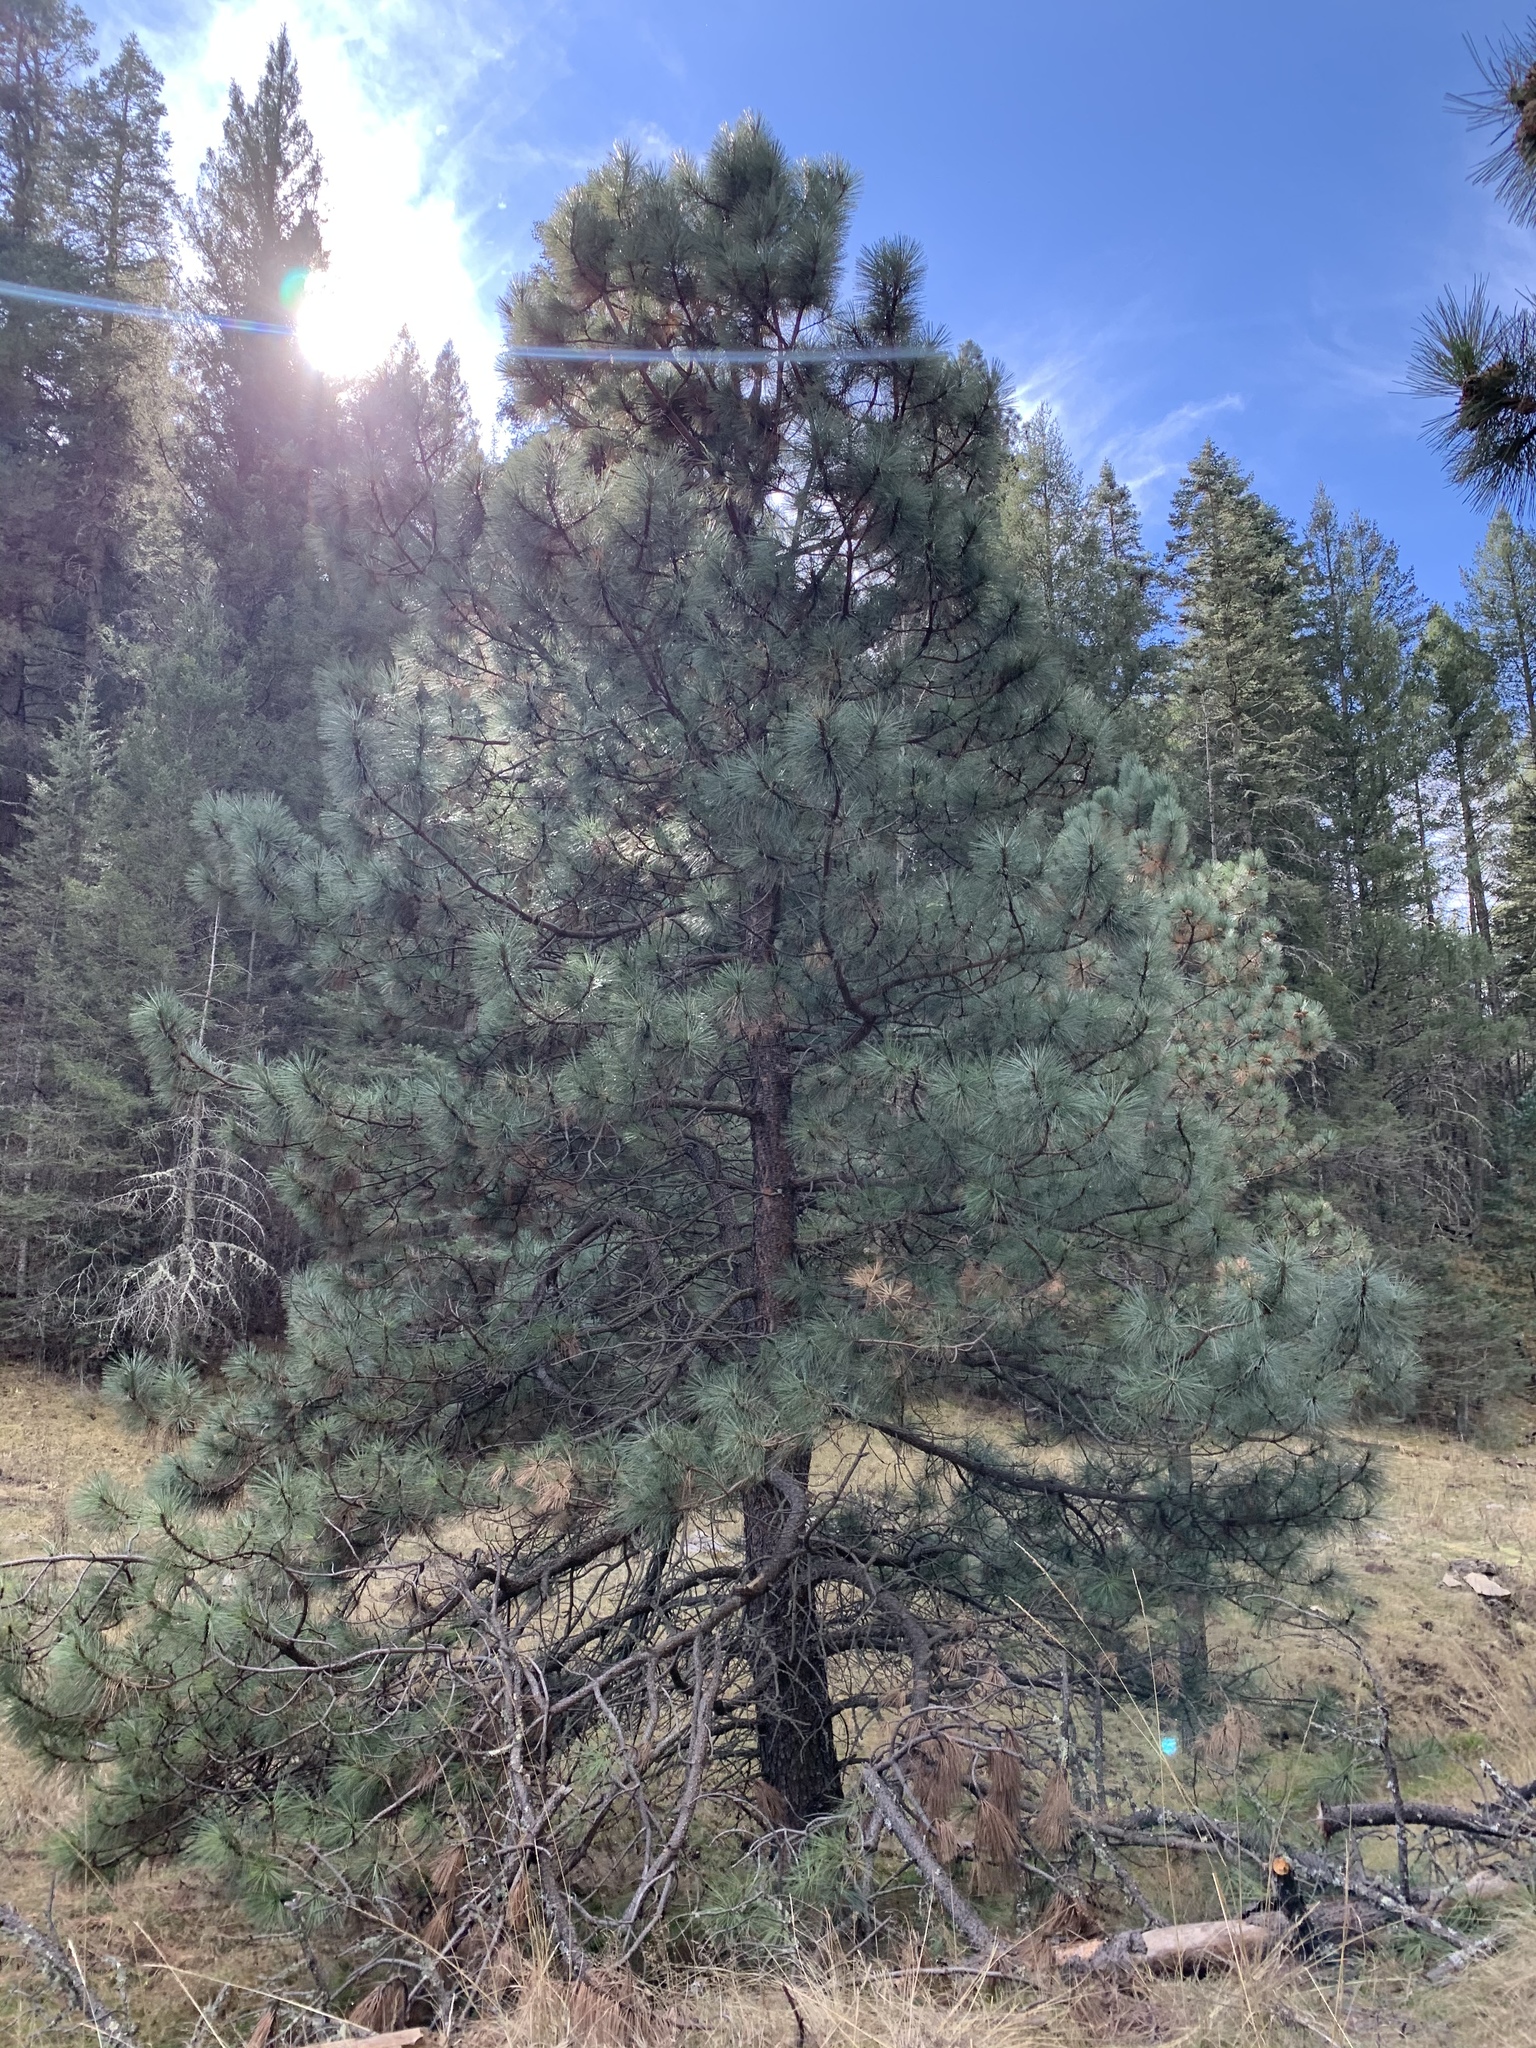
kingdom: Plantae
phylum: Tracheophyta
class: Pinopsida
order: Pinales
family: Pinaceae
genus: Pinus
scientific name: Pinus ponderosa
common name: Western yellow-pine
